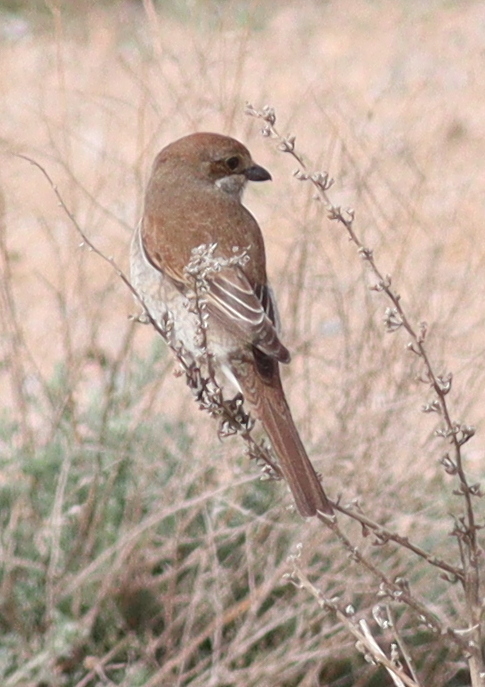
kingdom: Animalia
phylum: Chordata
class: Aves
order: Passeriformes
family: Laniidae
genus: Lanius
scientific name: Lanius collurio
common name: Red-backed shrike
